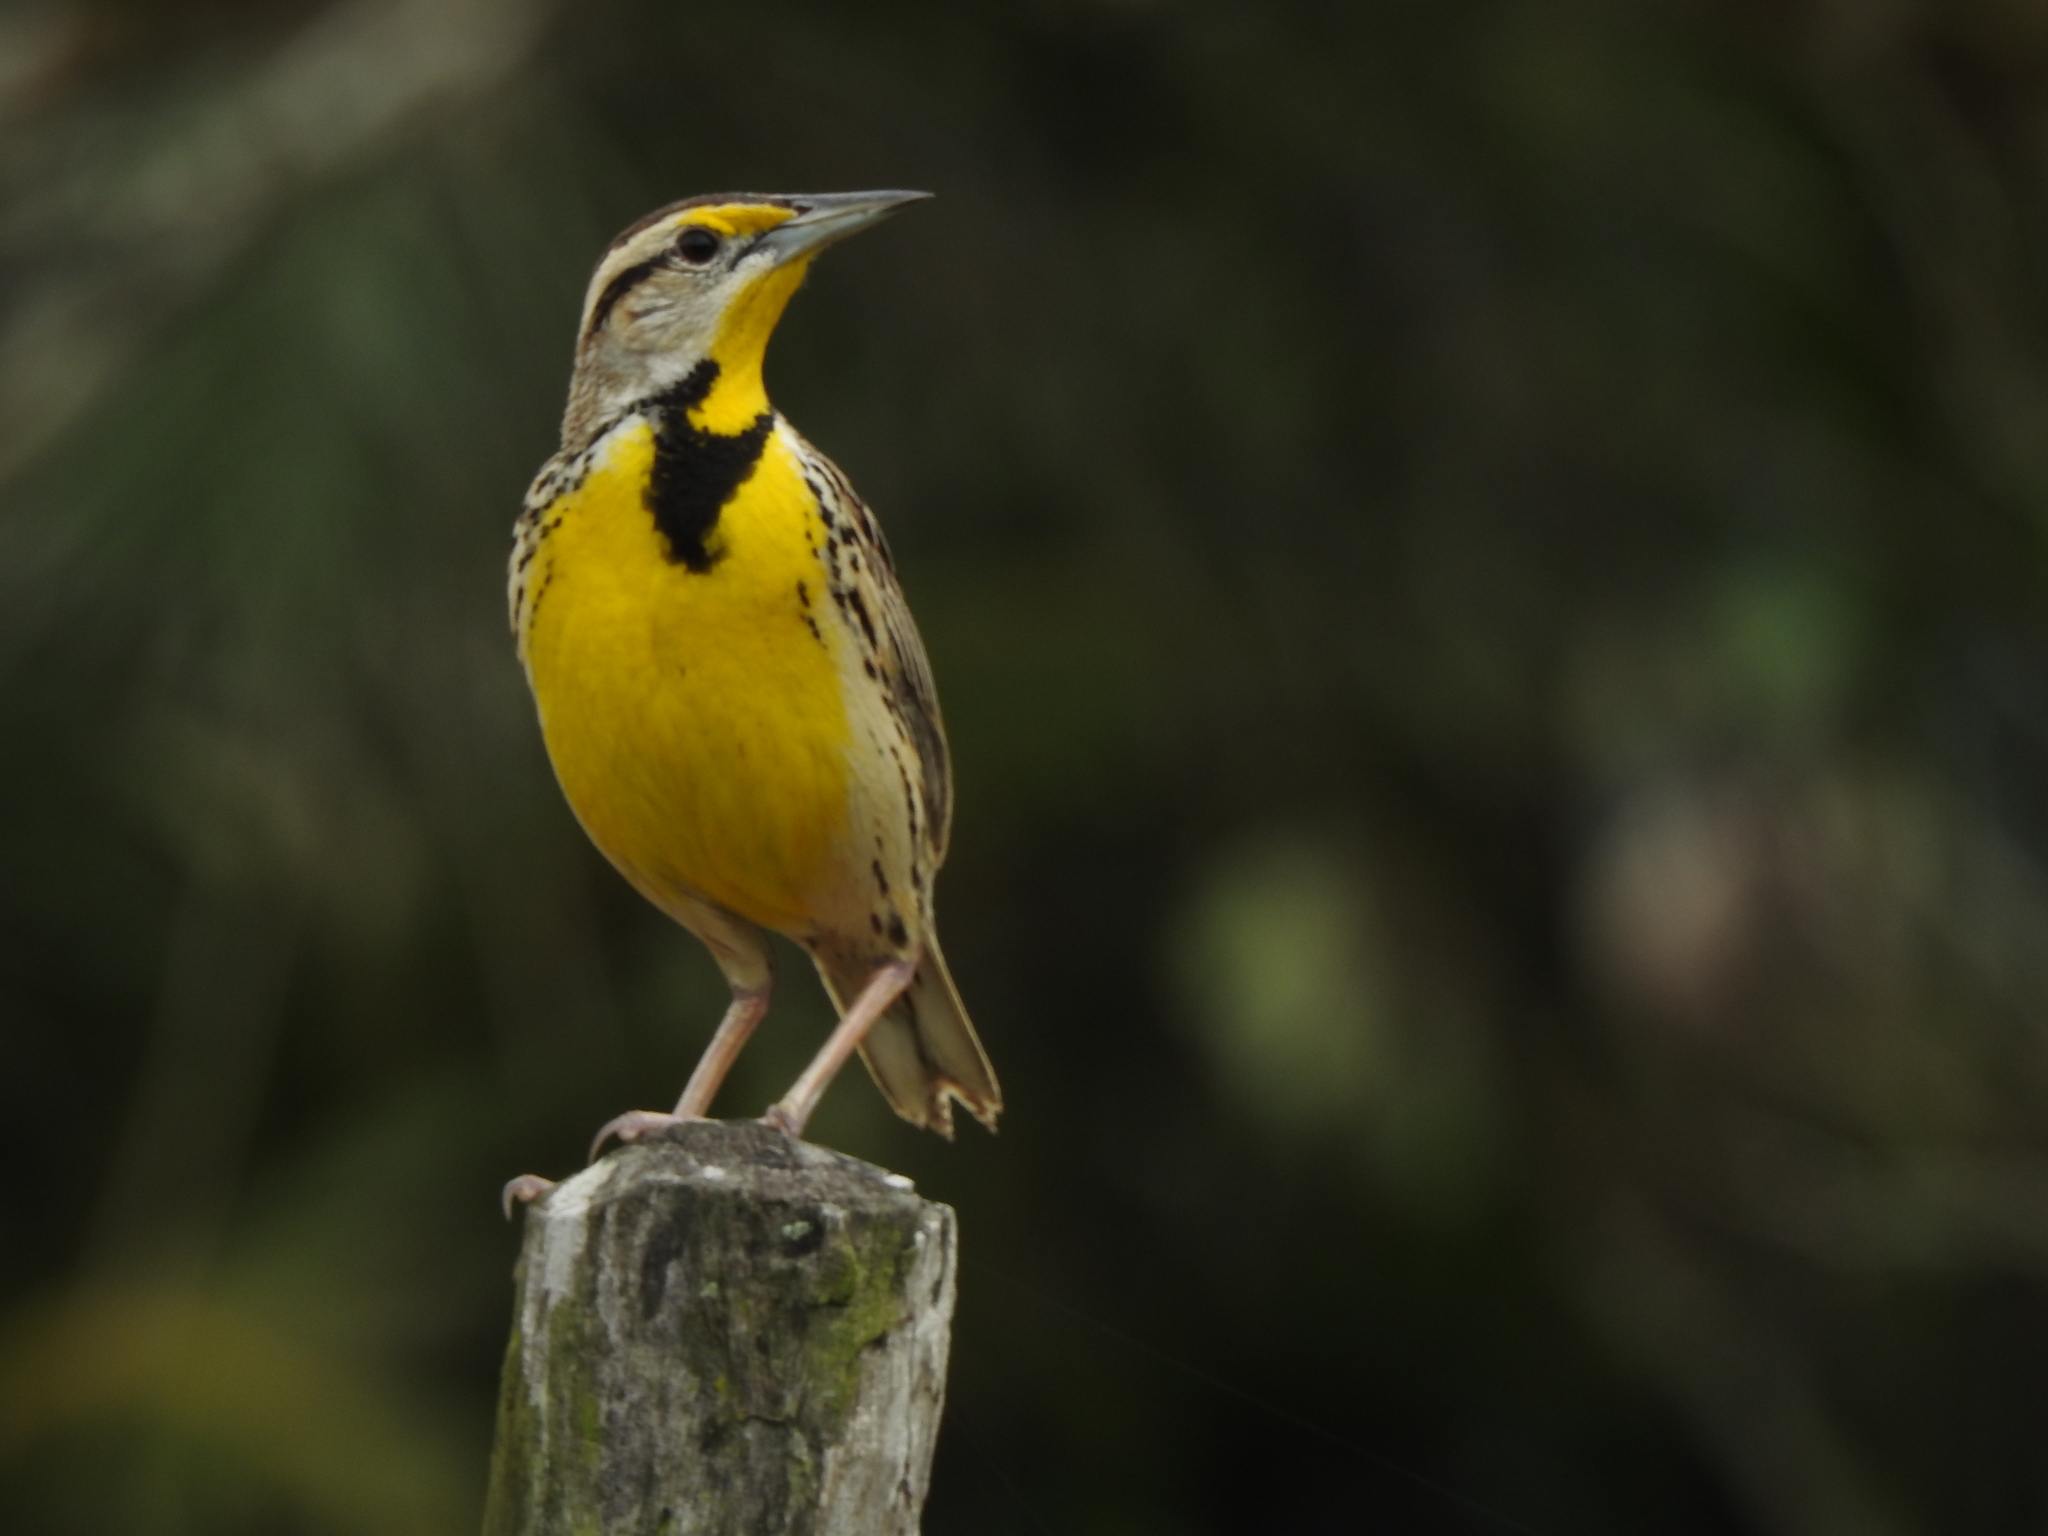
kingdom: Animalia
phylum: Chordata
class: Aves
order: Passeriformes
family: Icteridae
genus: Sturnella
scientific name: Sturnella magna
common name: Eastern meadowlark
